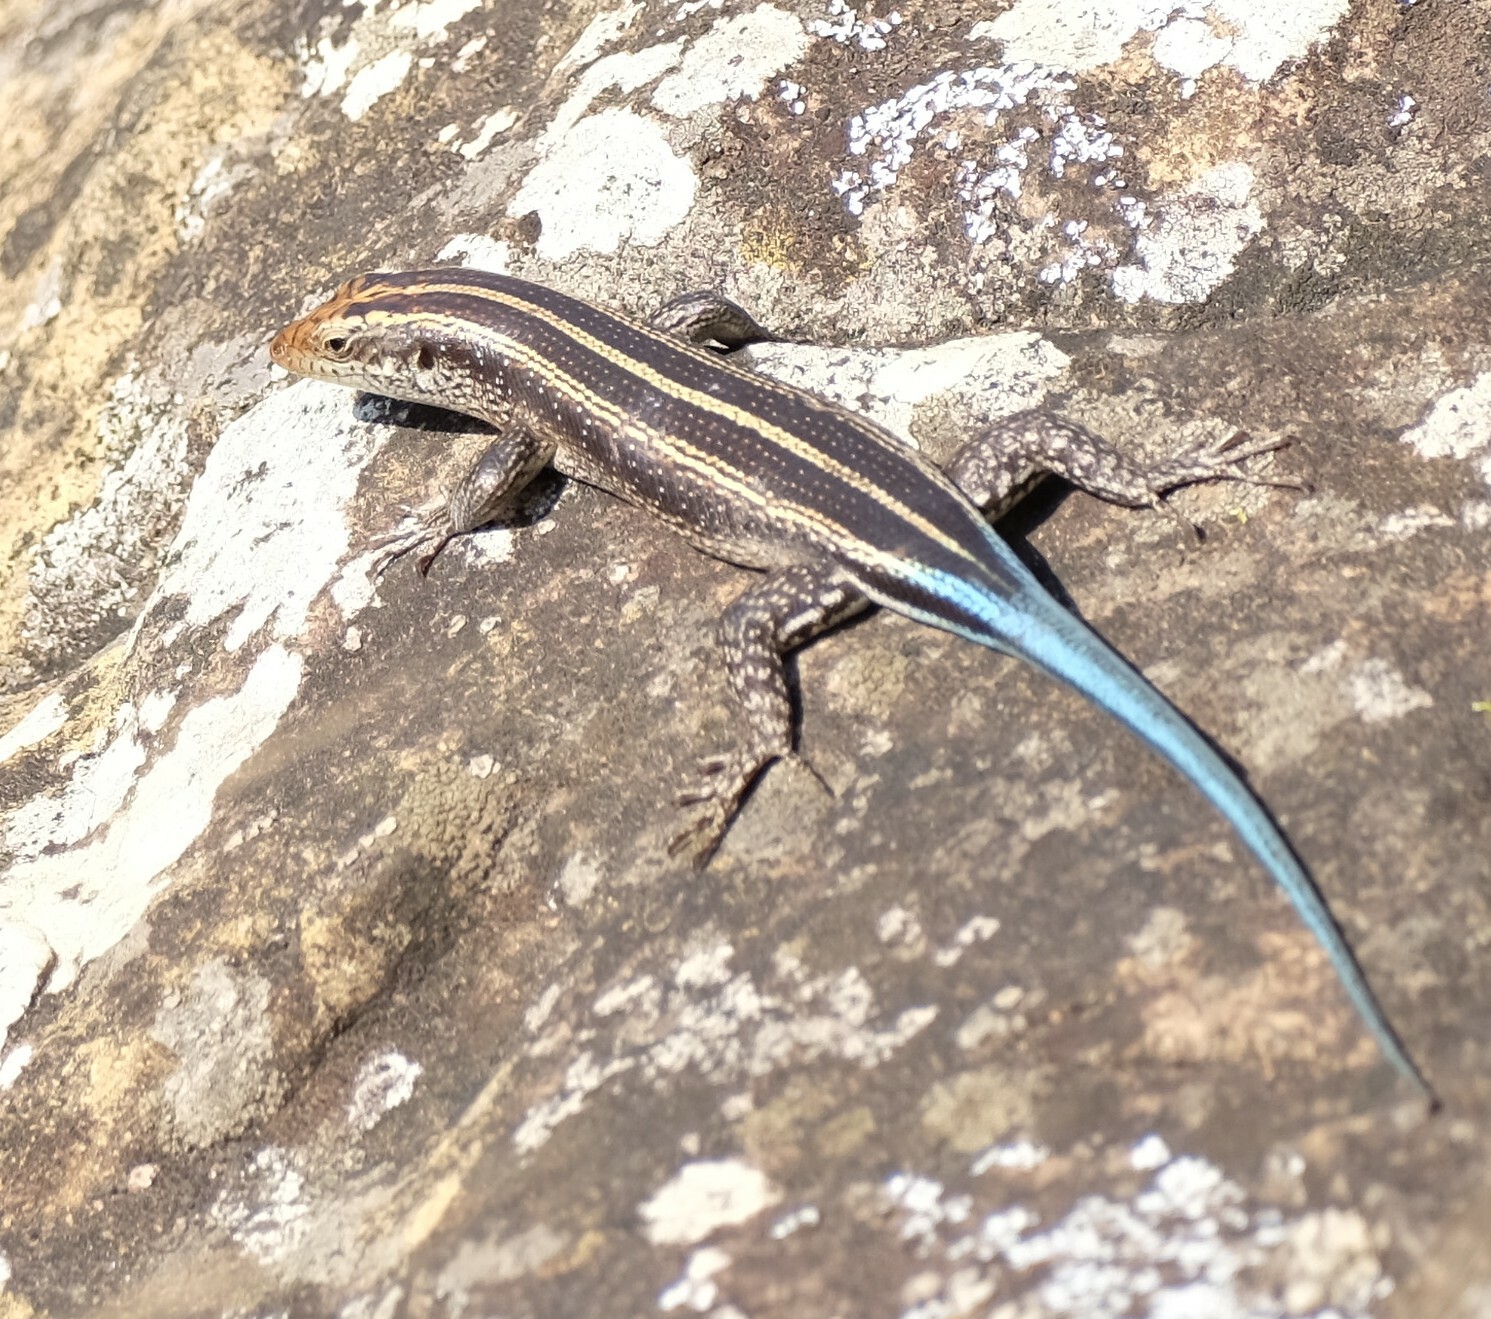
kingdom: Animalia
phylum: Chordata
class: Squamata
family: Scincidae
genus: Trachylepis
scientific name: Trachylepis margaritifera
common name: Rainbow skink
